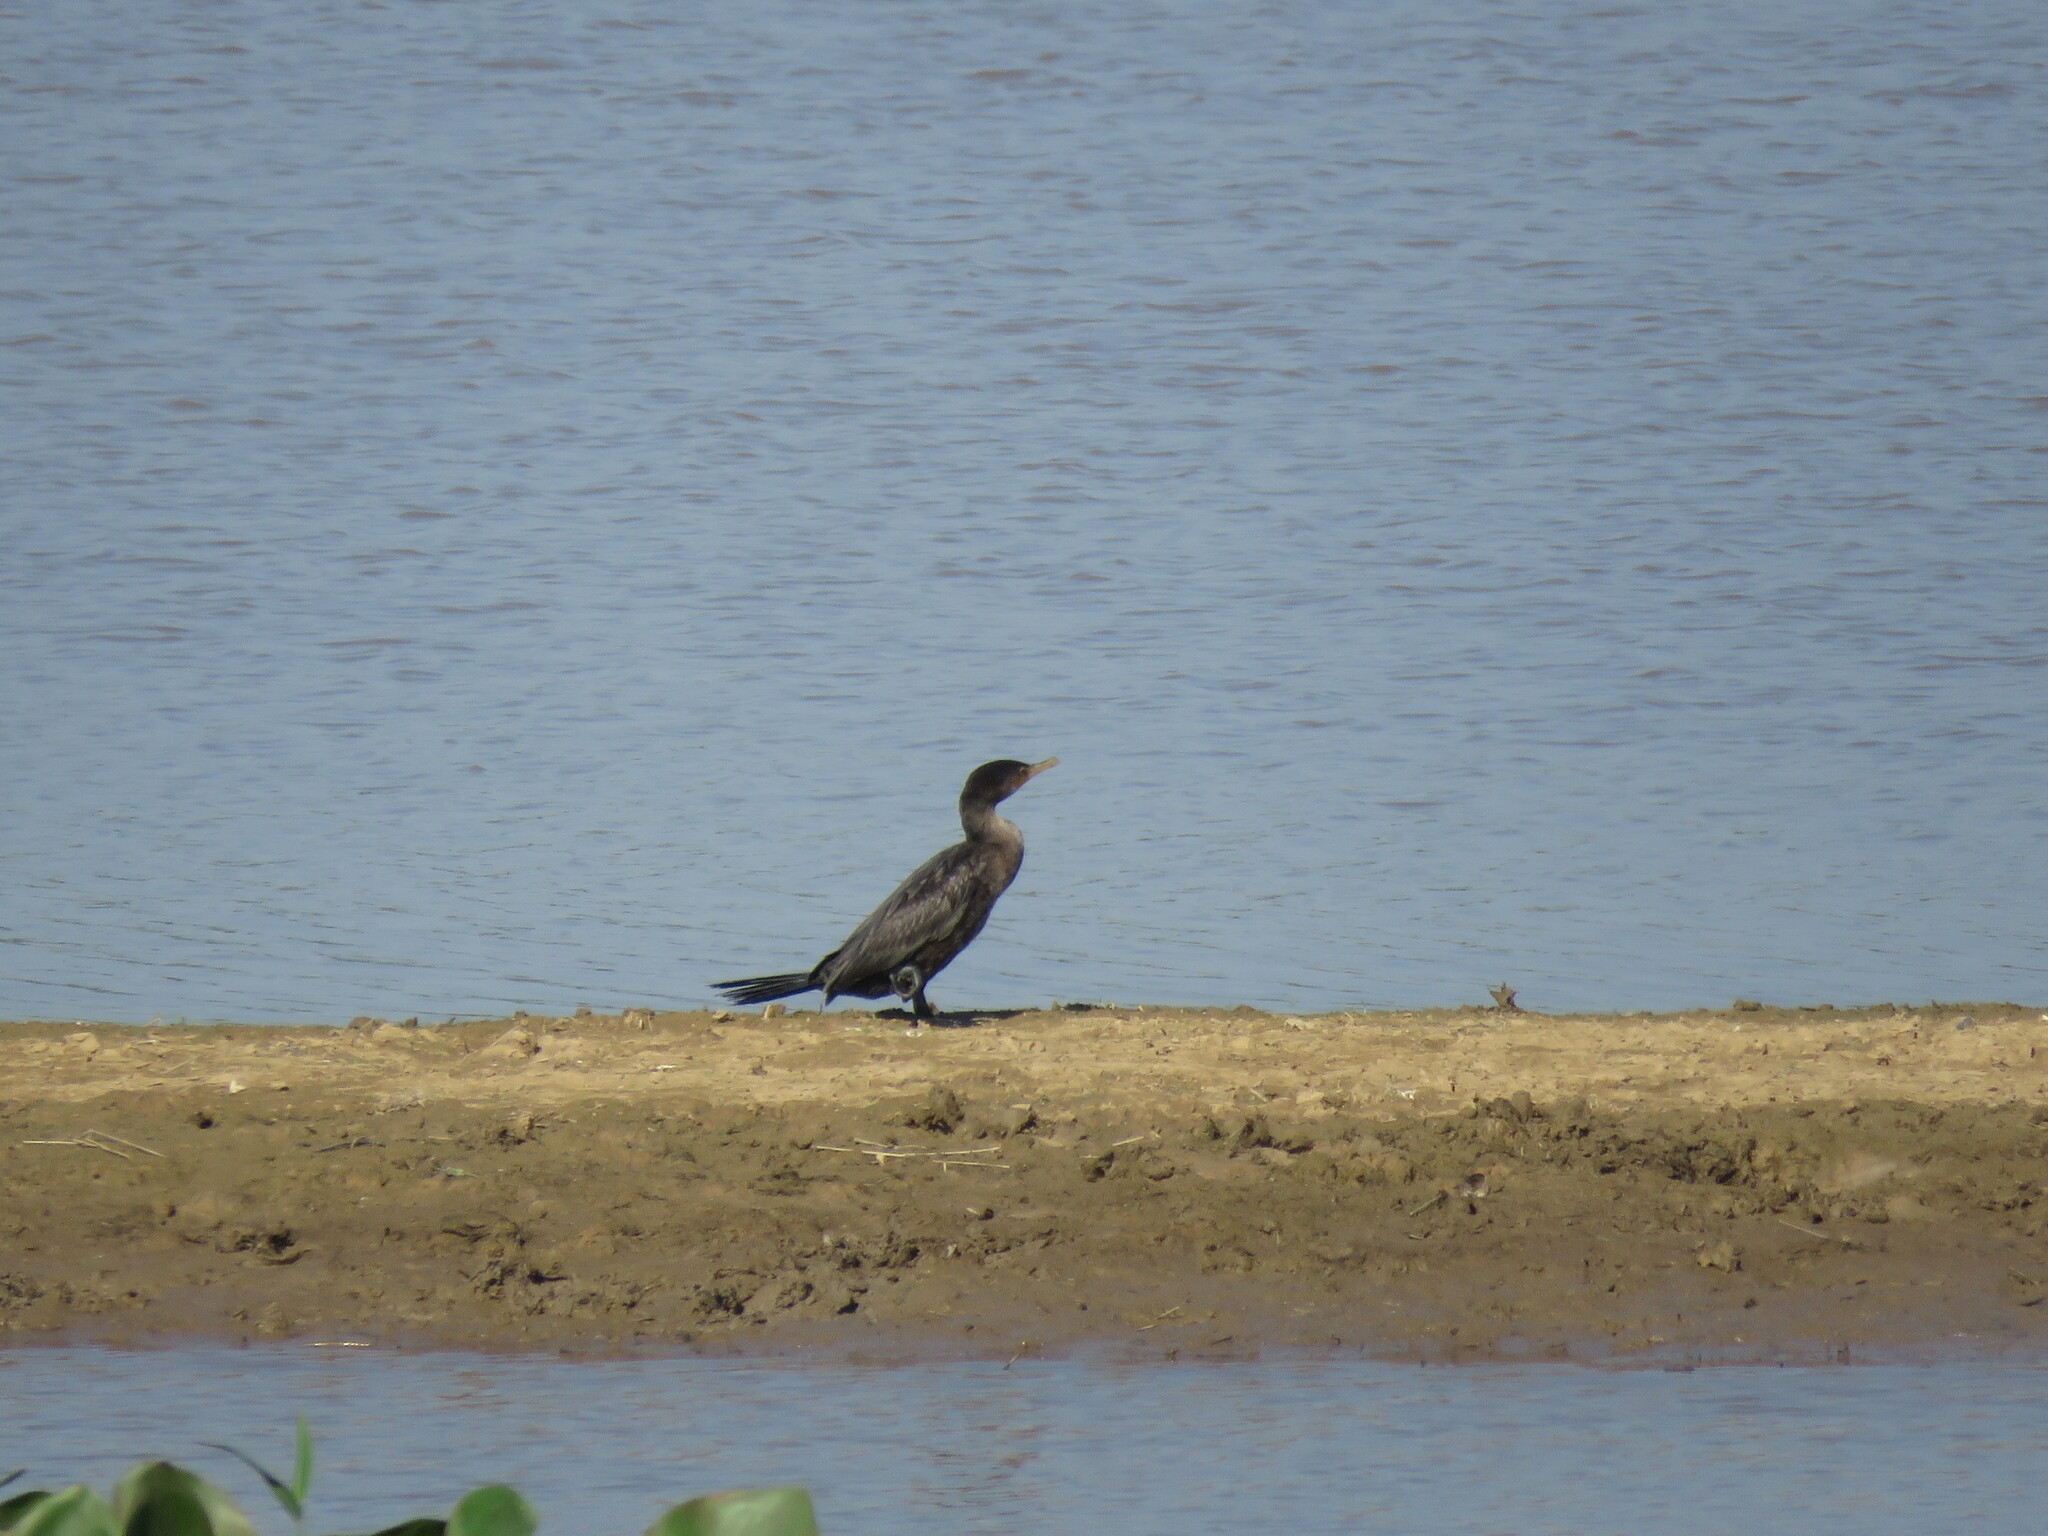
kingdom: Animalia
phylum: Chordata
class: Aves
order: Suliformes
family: Phalacrocoracidae
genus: Phalacrocorax
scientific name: Phalacrocorax brasilianus
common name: Neotropic cormorant
